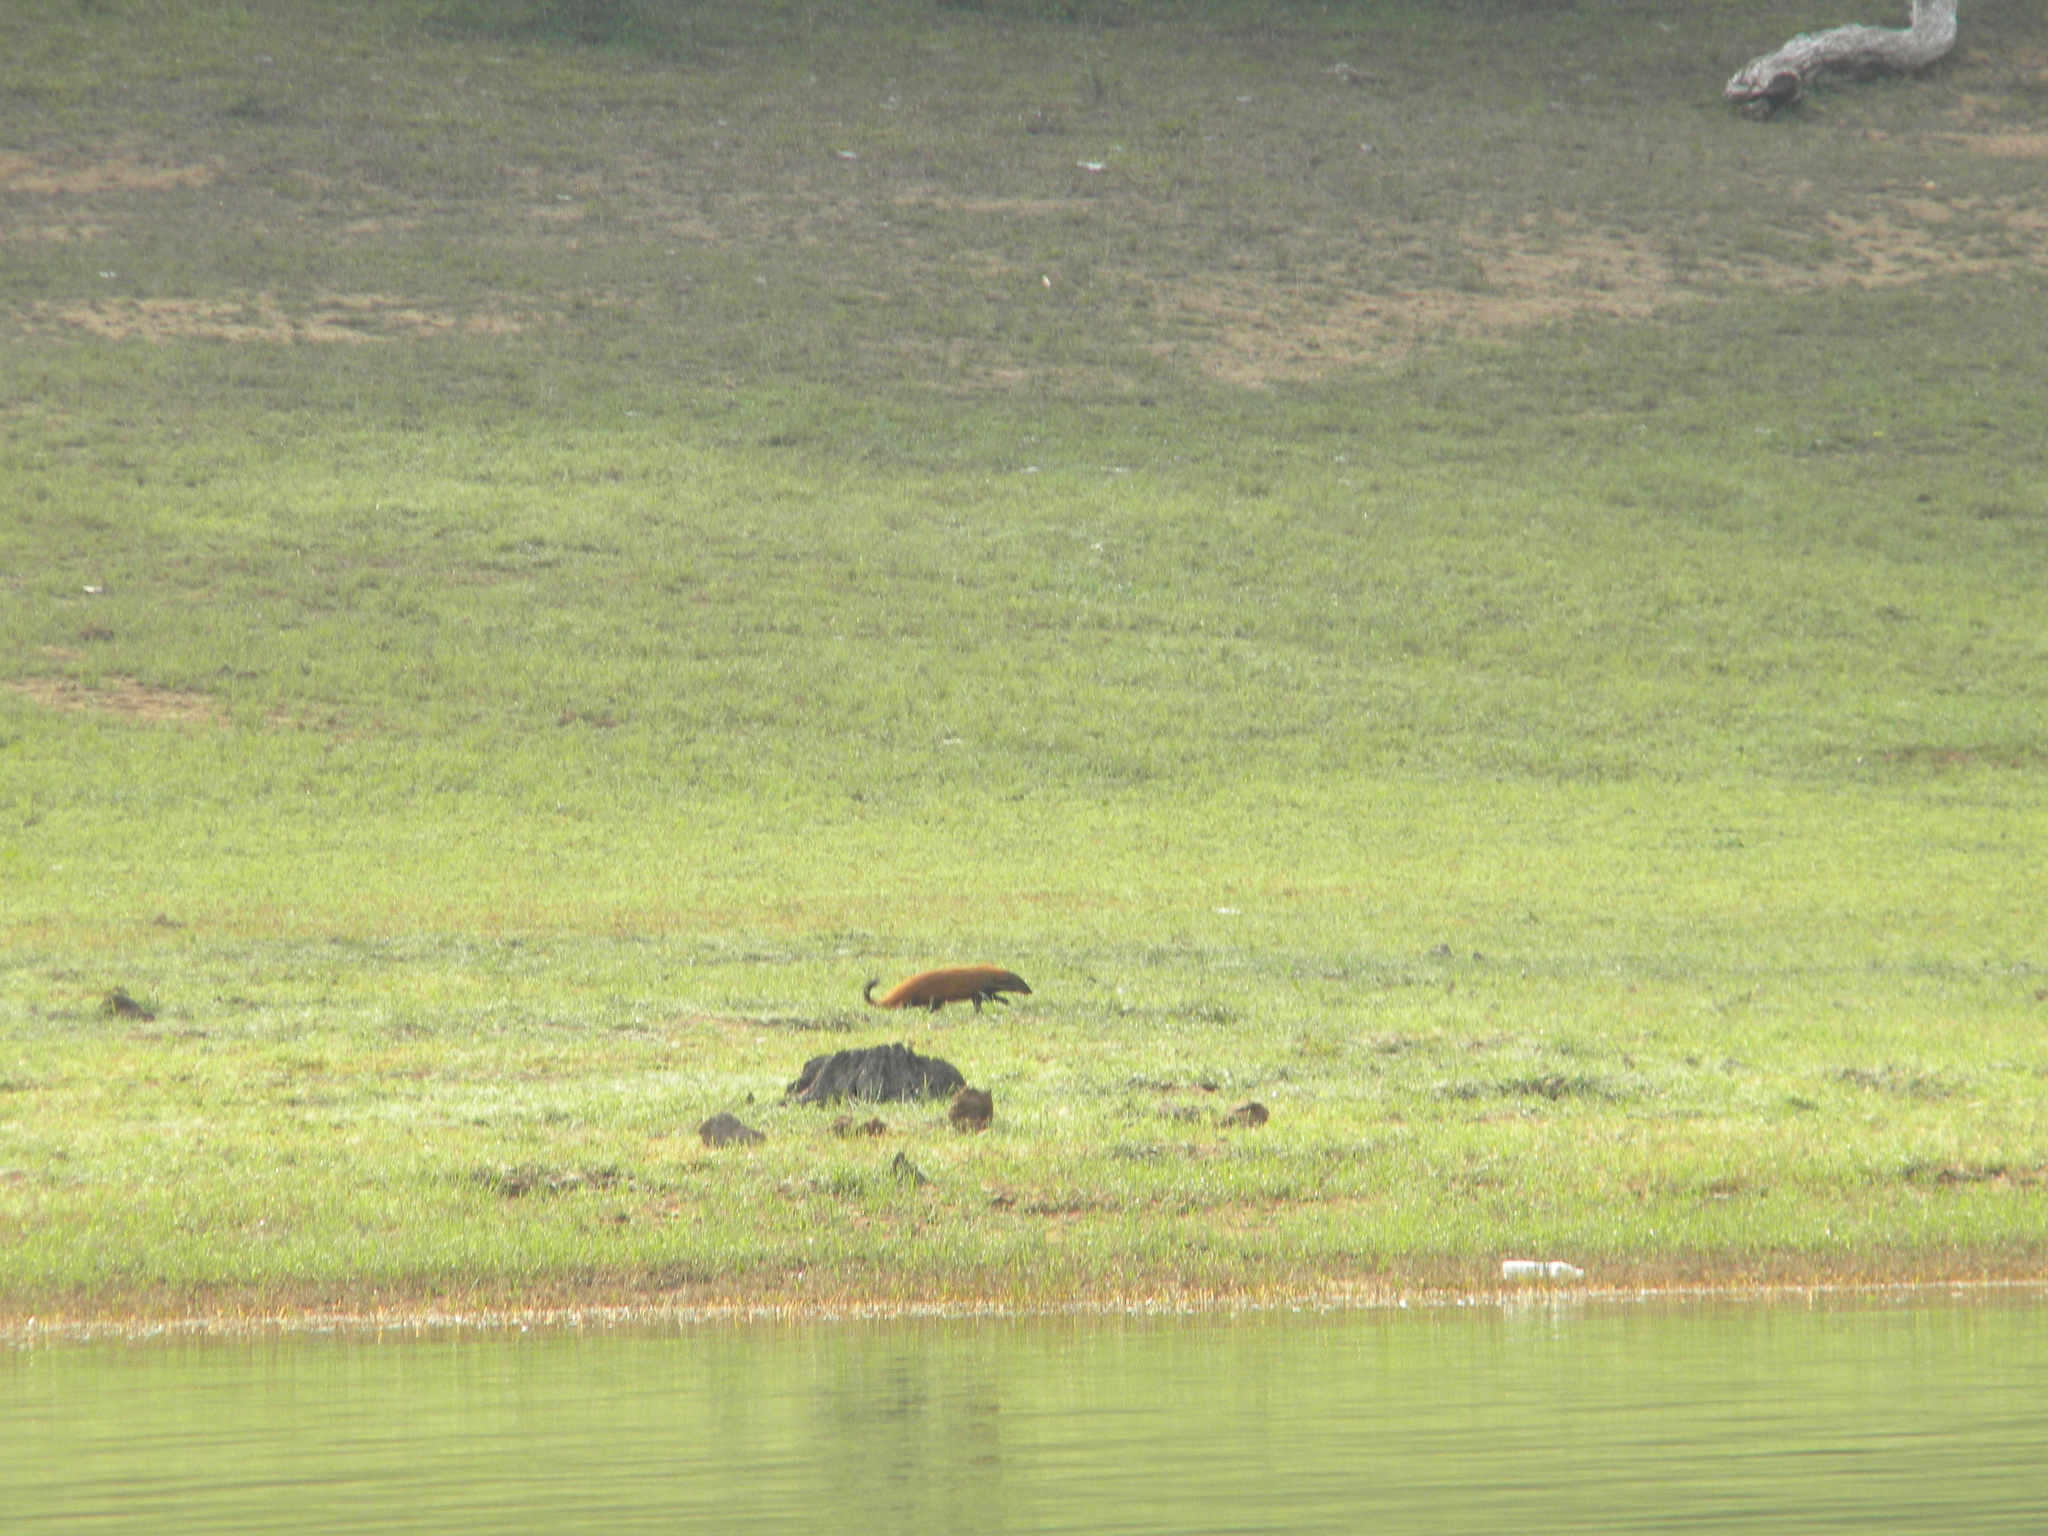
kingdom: Animalia
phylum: Chordata
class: Mammalia
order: Carnivora
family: Herpestidae
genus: Herpestes
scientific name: Herpestes vitticollis
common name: Stripe-necked mongoose
